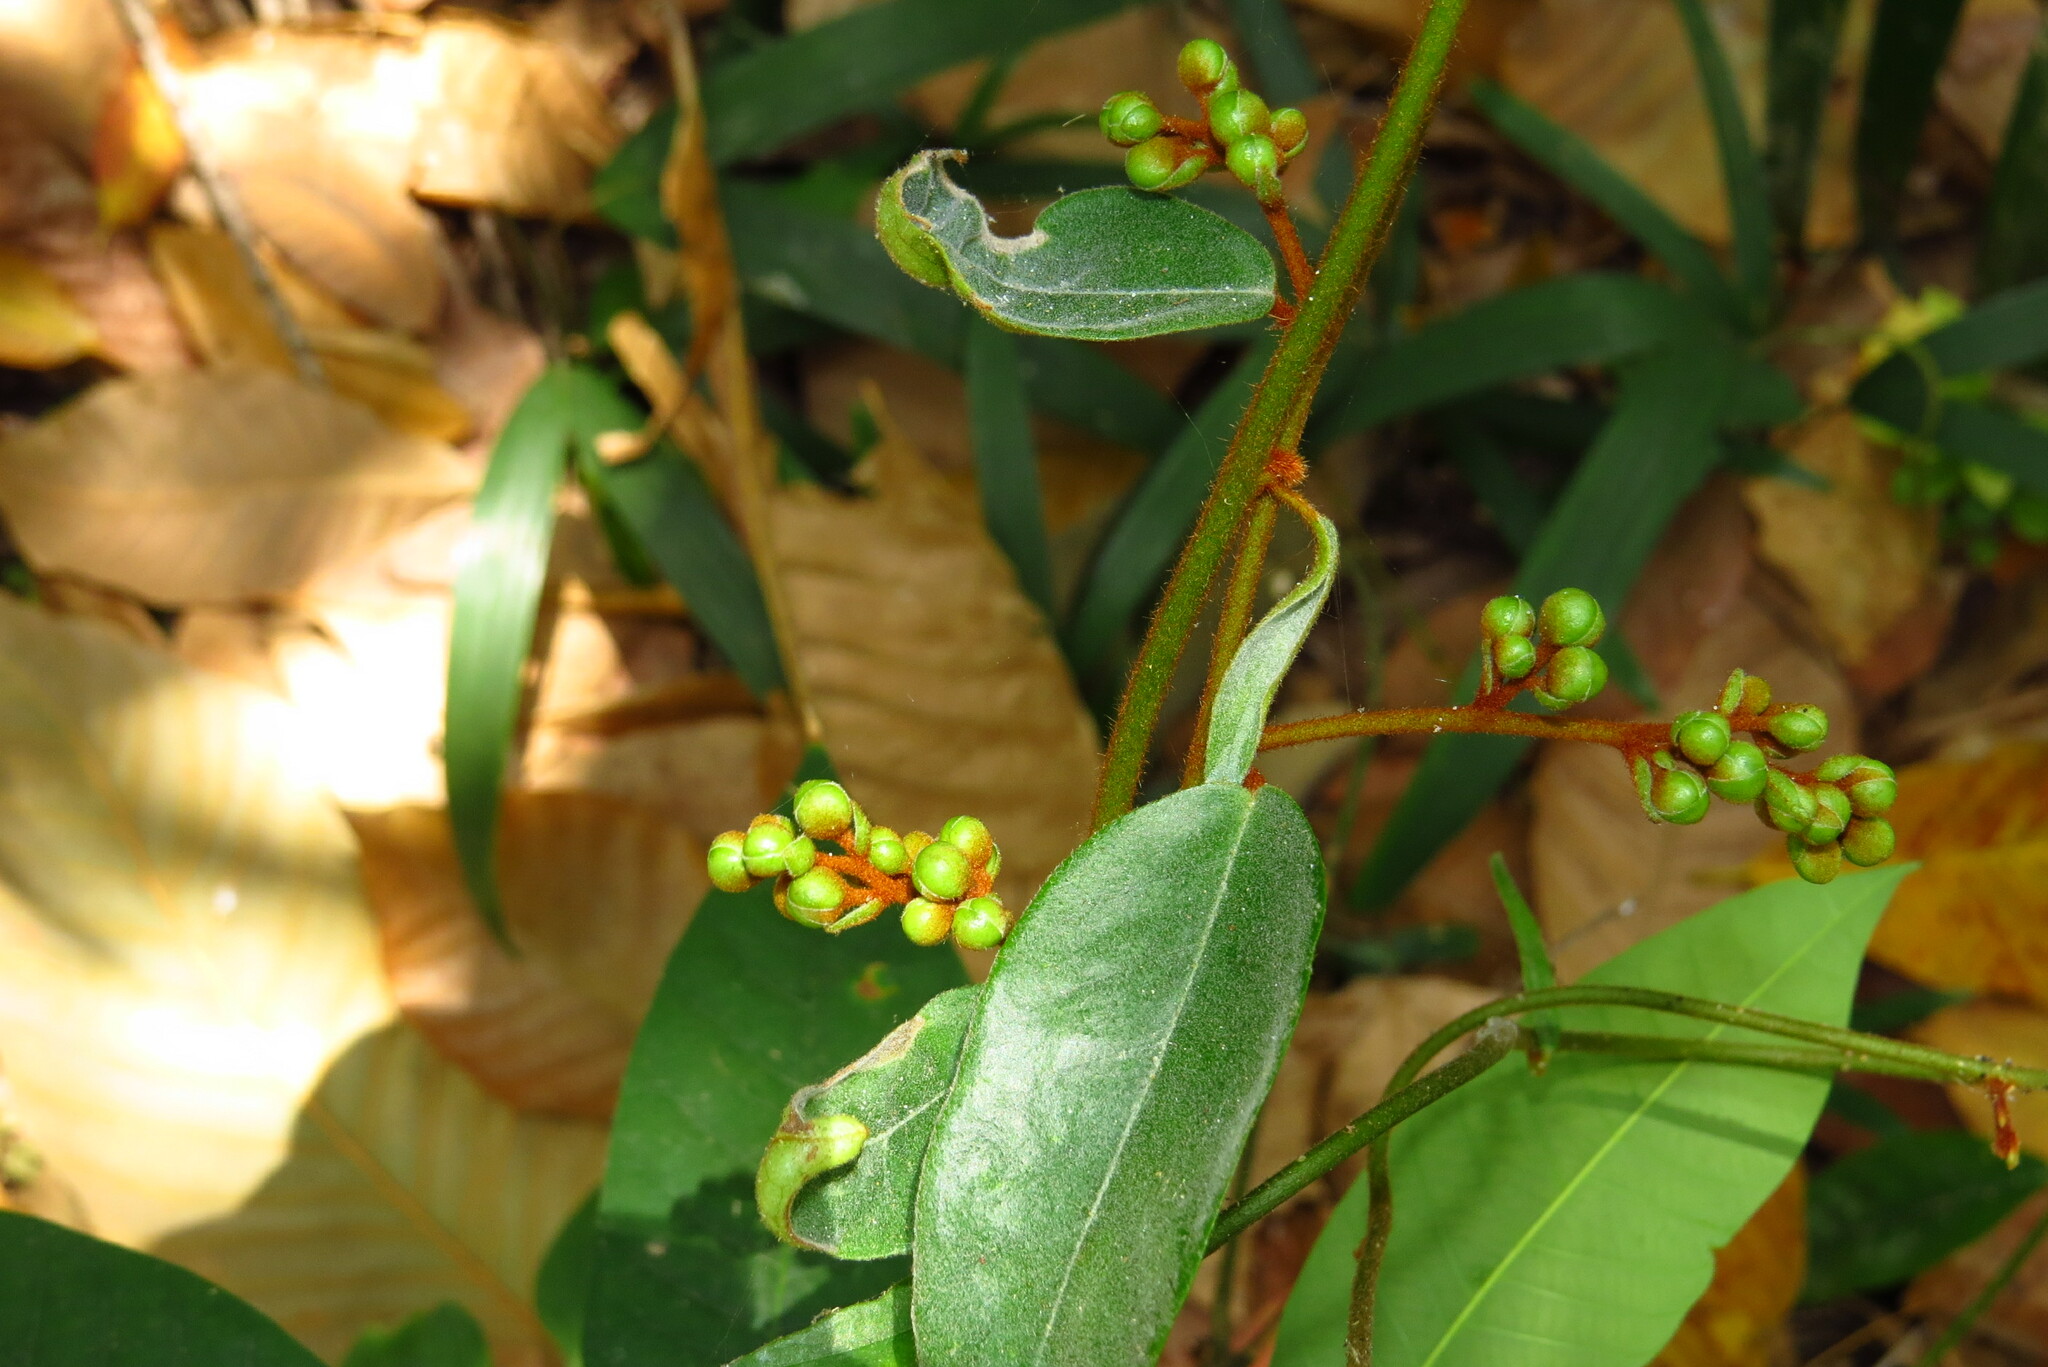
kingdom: Plantae
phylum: Tracheophyta
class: Magnoliopsida
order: Solanales
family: Convolvulaceae
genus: Erycibe
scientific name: Erycibe tomentosa
